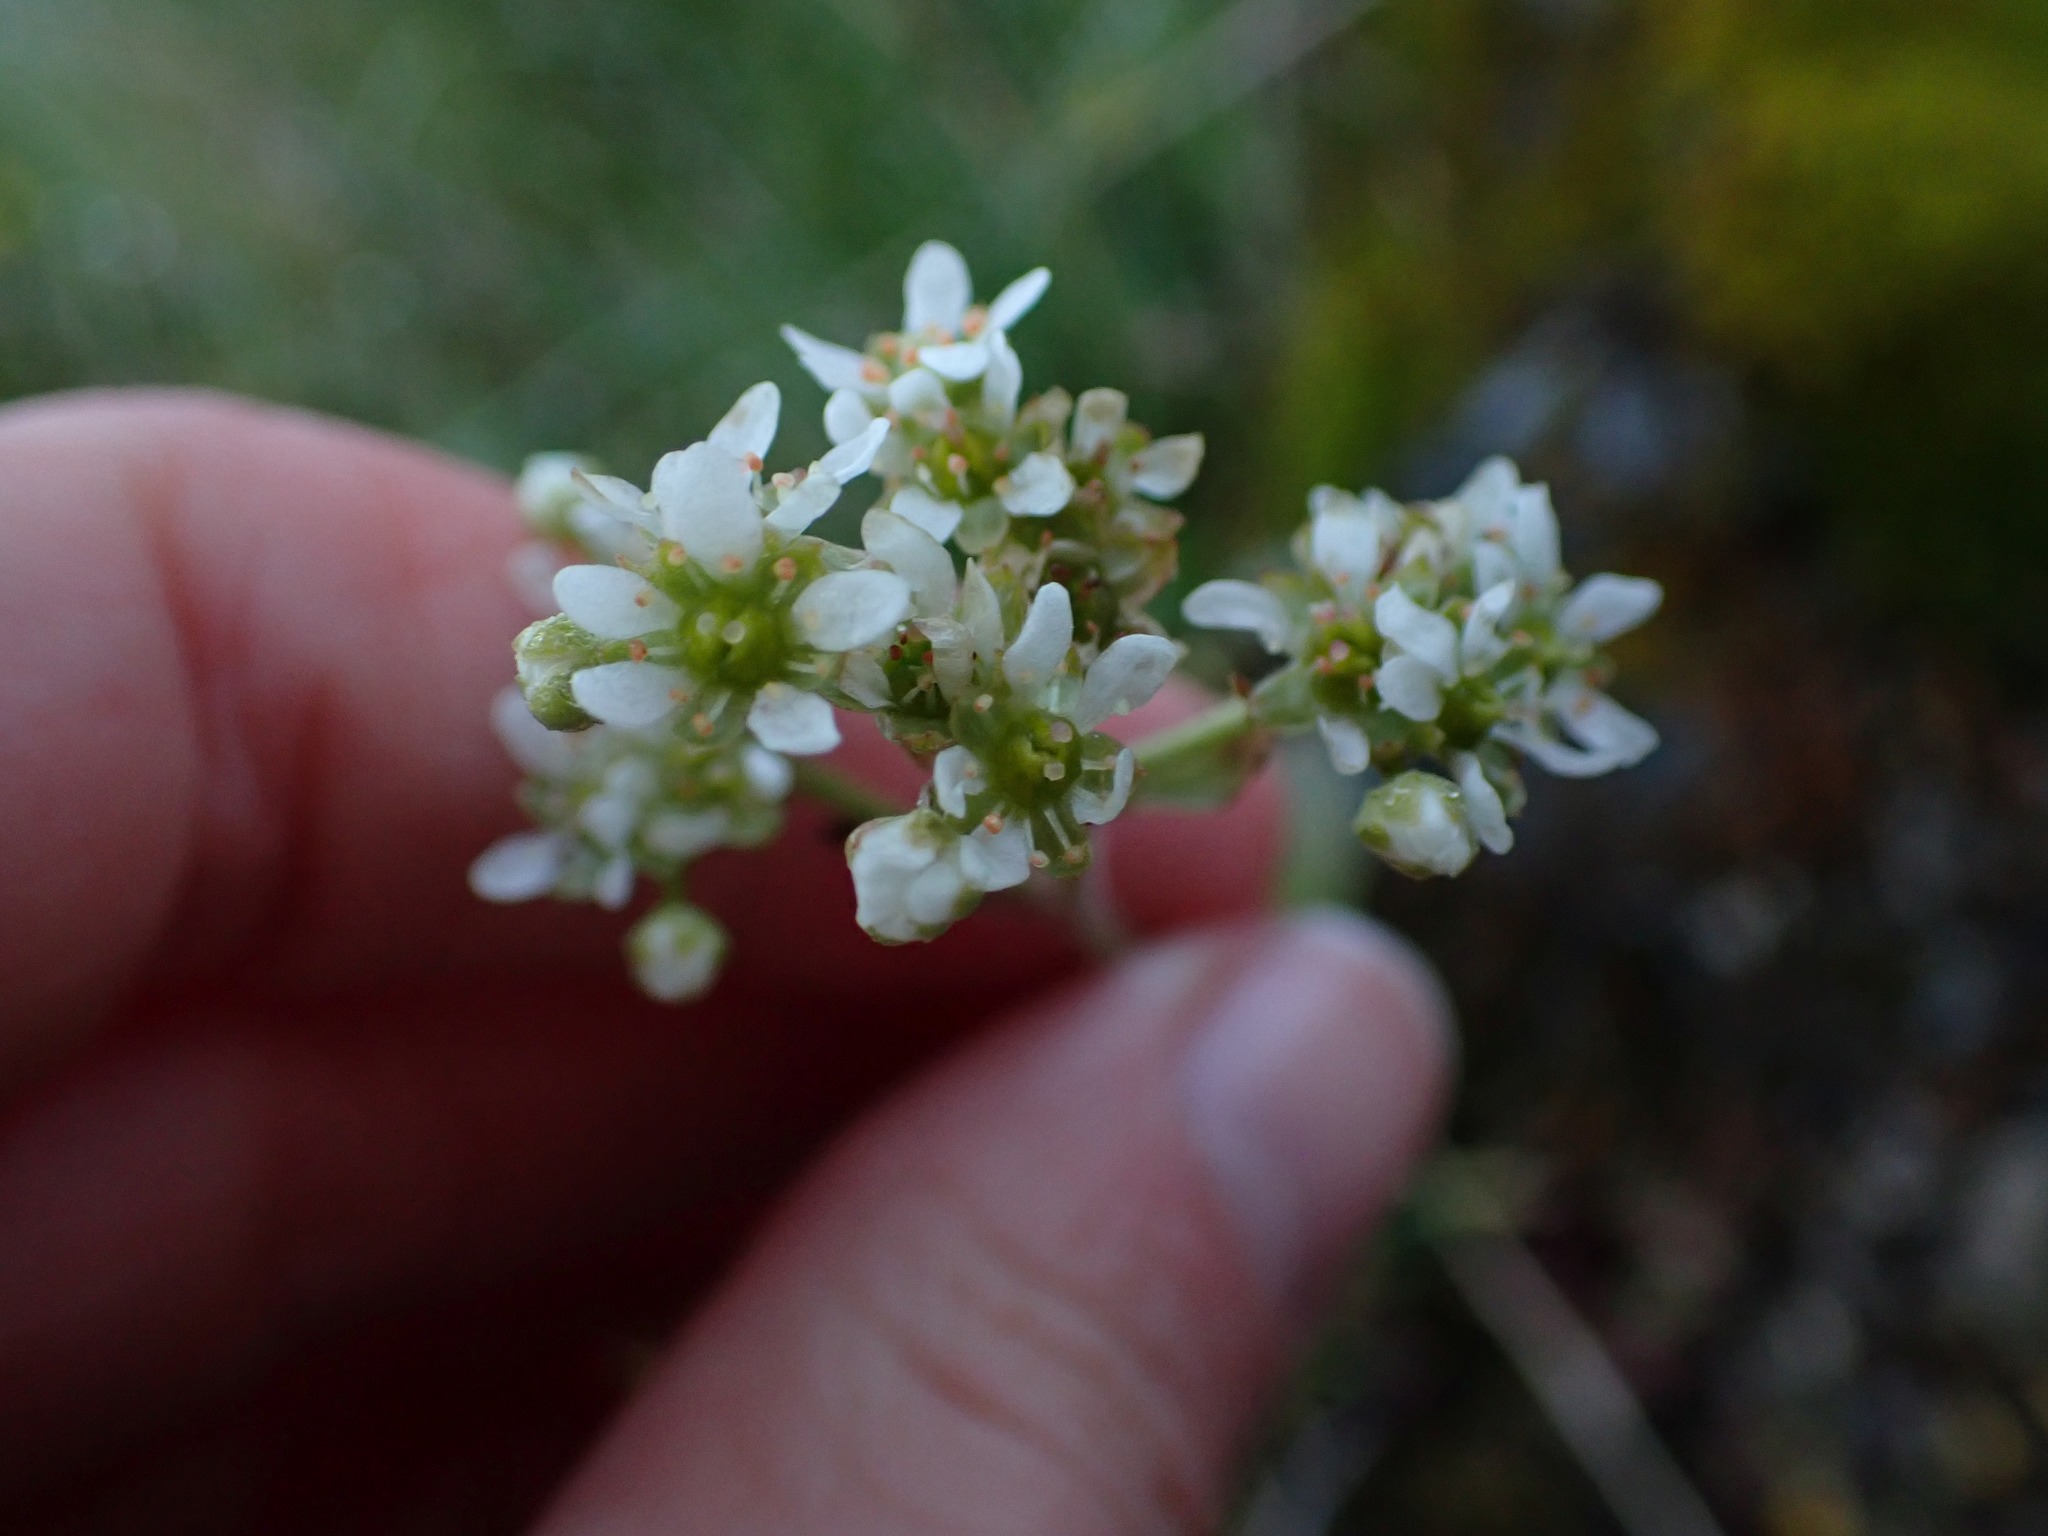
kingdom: Plantae
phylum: Tracheophyta
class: Magnoliopsida
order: Saxifragales
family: Saxifragaceae
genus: Micranthes
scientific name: Micranthes integrifolia
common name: Wholeleaf saxifrage
